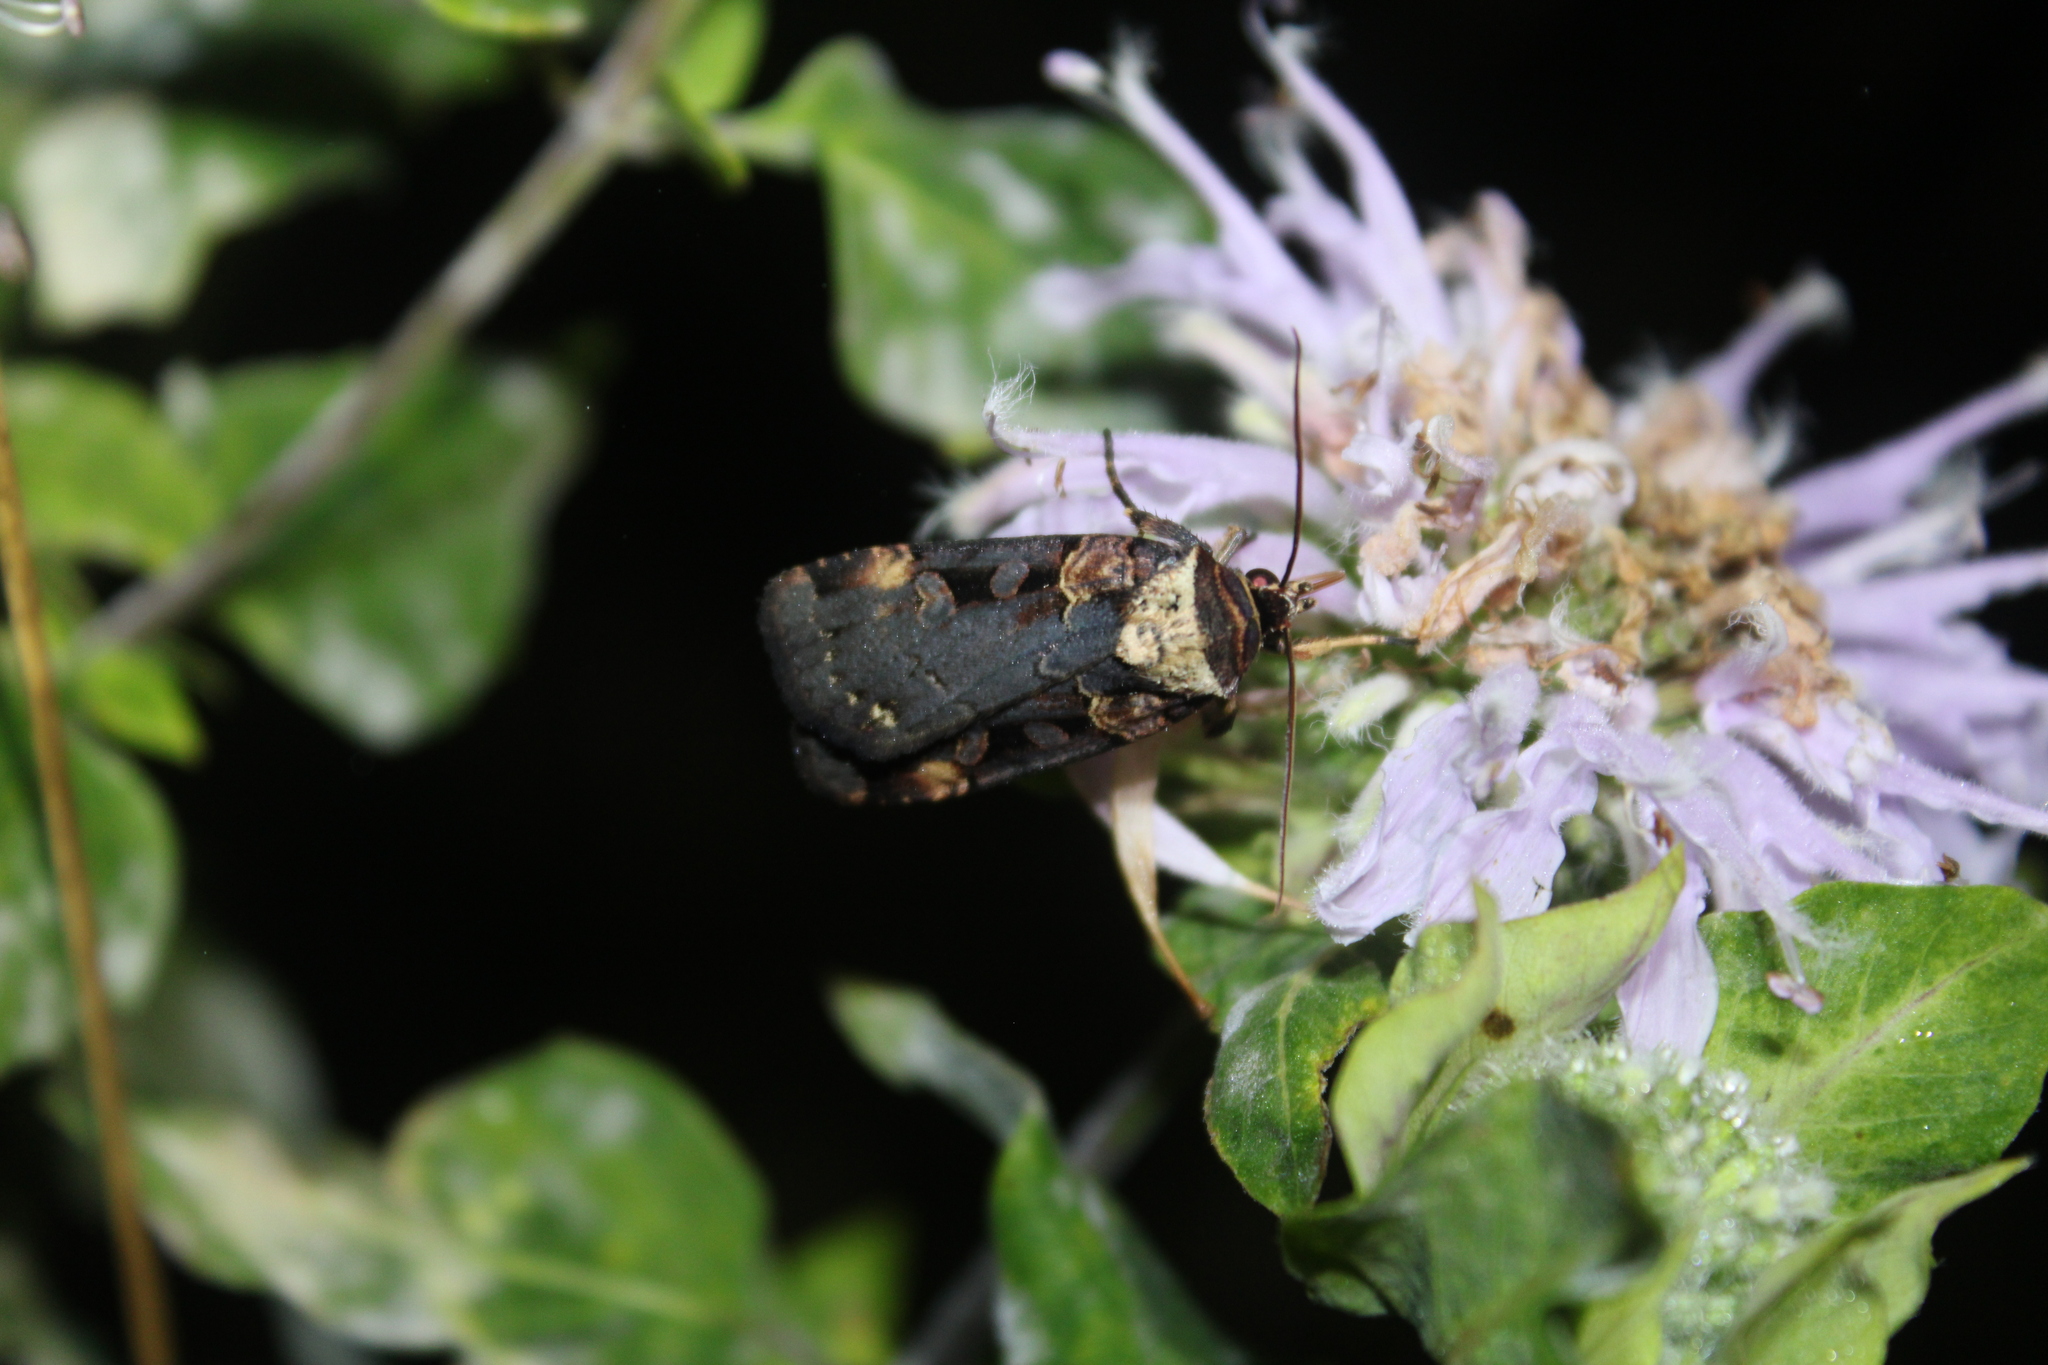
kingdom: Animalia
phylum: Arthropoda
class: Insecta
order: Lepidoptera
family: Noctuidae
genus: Pseudohermonassa
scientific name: Pseudohermonassa bicarnea
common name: Pink spotted dart
